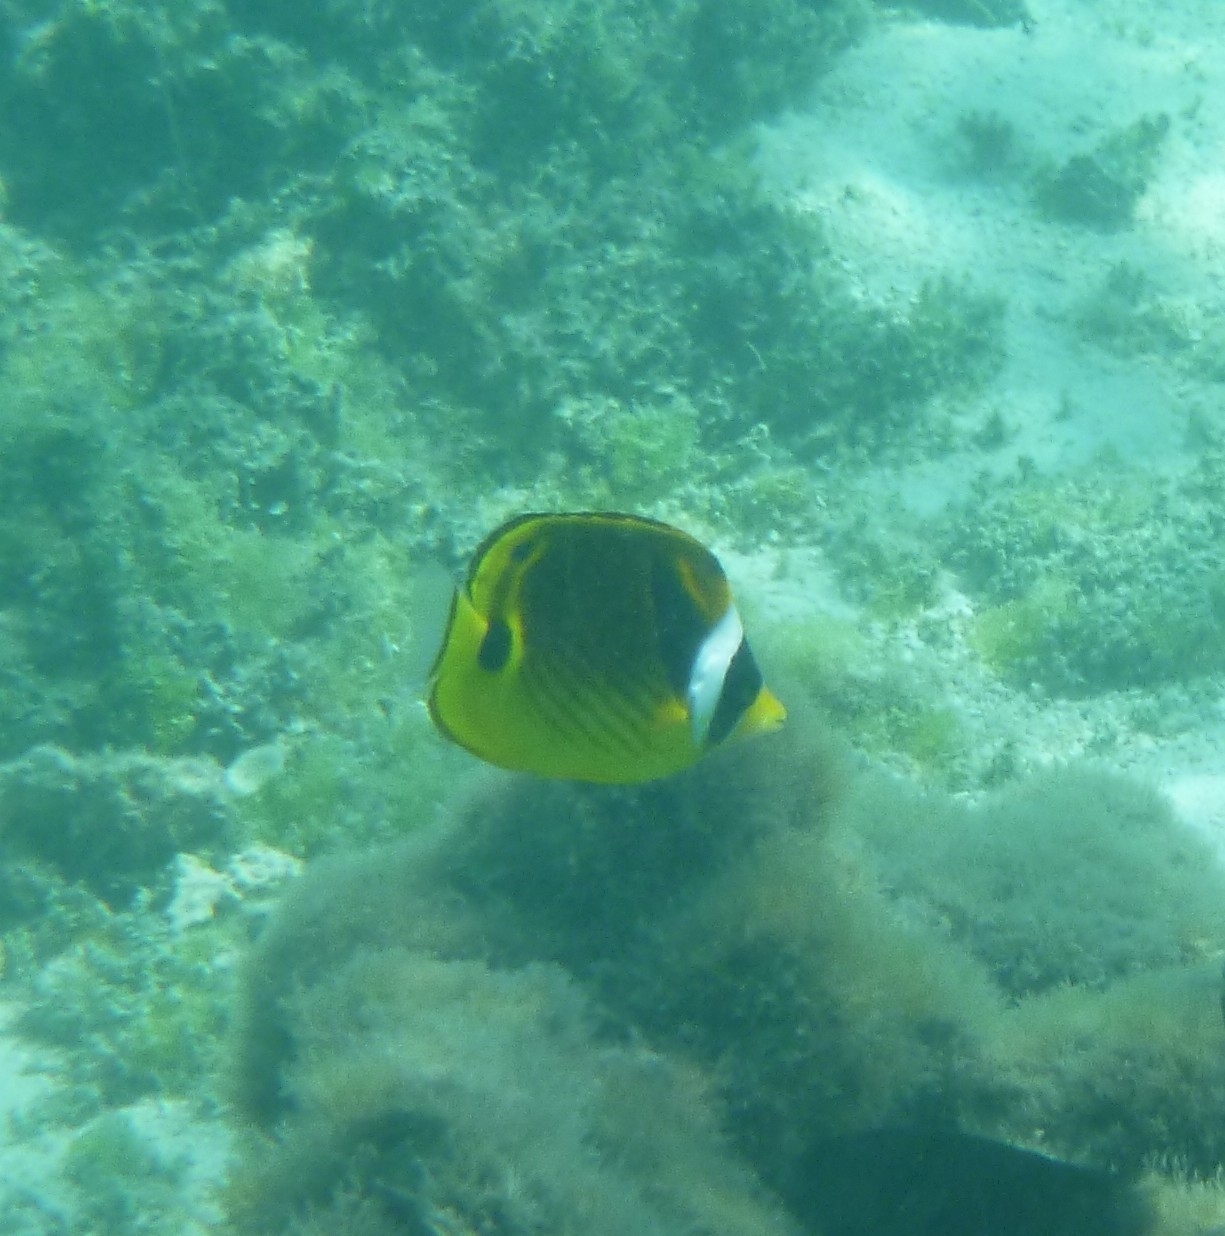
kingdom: Animalia
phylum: Chordata
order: Perciformes
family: Chaetodontidae
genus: Chaetodon
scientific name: Chaetodon lunula
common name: Raccoon butterflyfish
